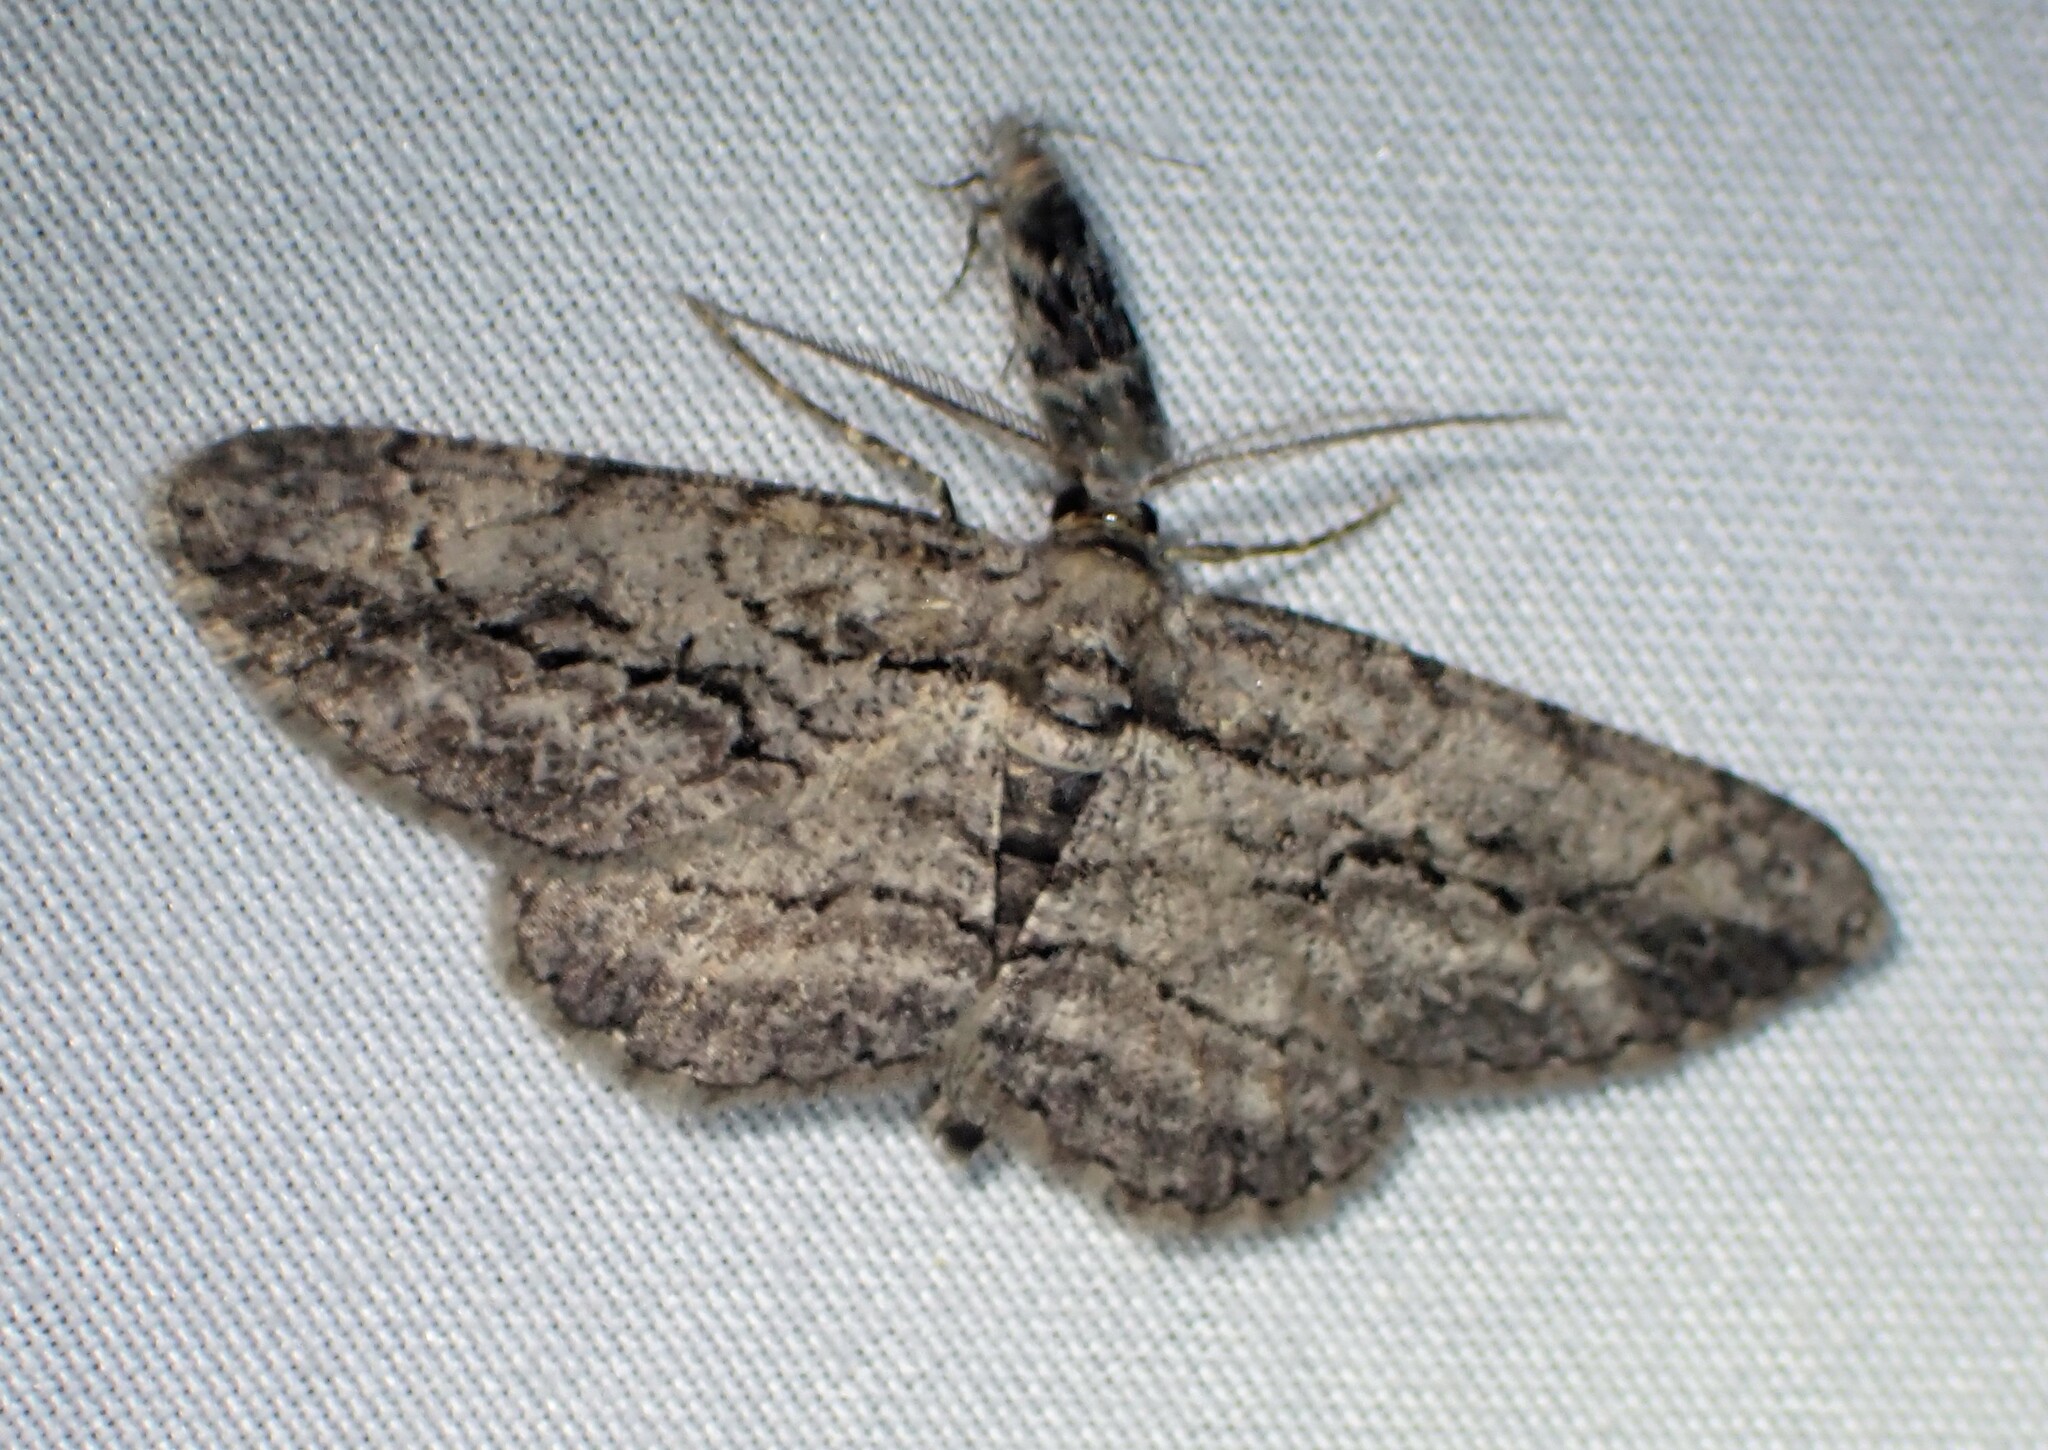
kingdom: Animalia
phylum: Arthropoda
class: Insecta
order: Lepidoptera
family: Geometridae
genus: Anavitrinella
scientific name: Anavitrinella pampinaria
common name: Common gray
